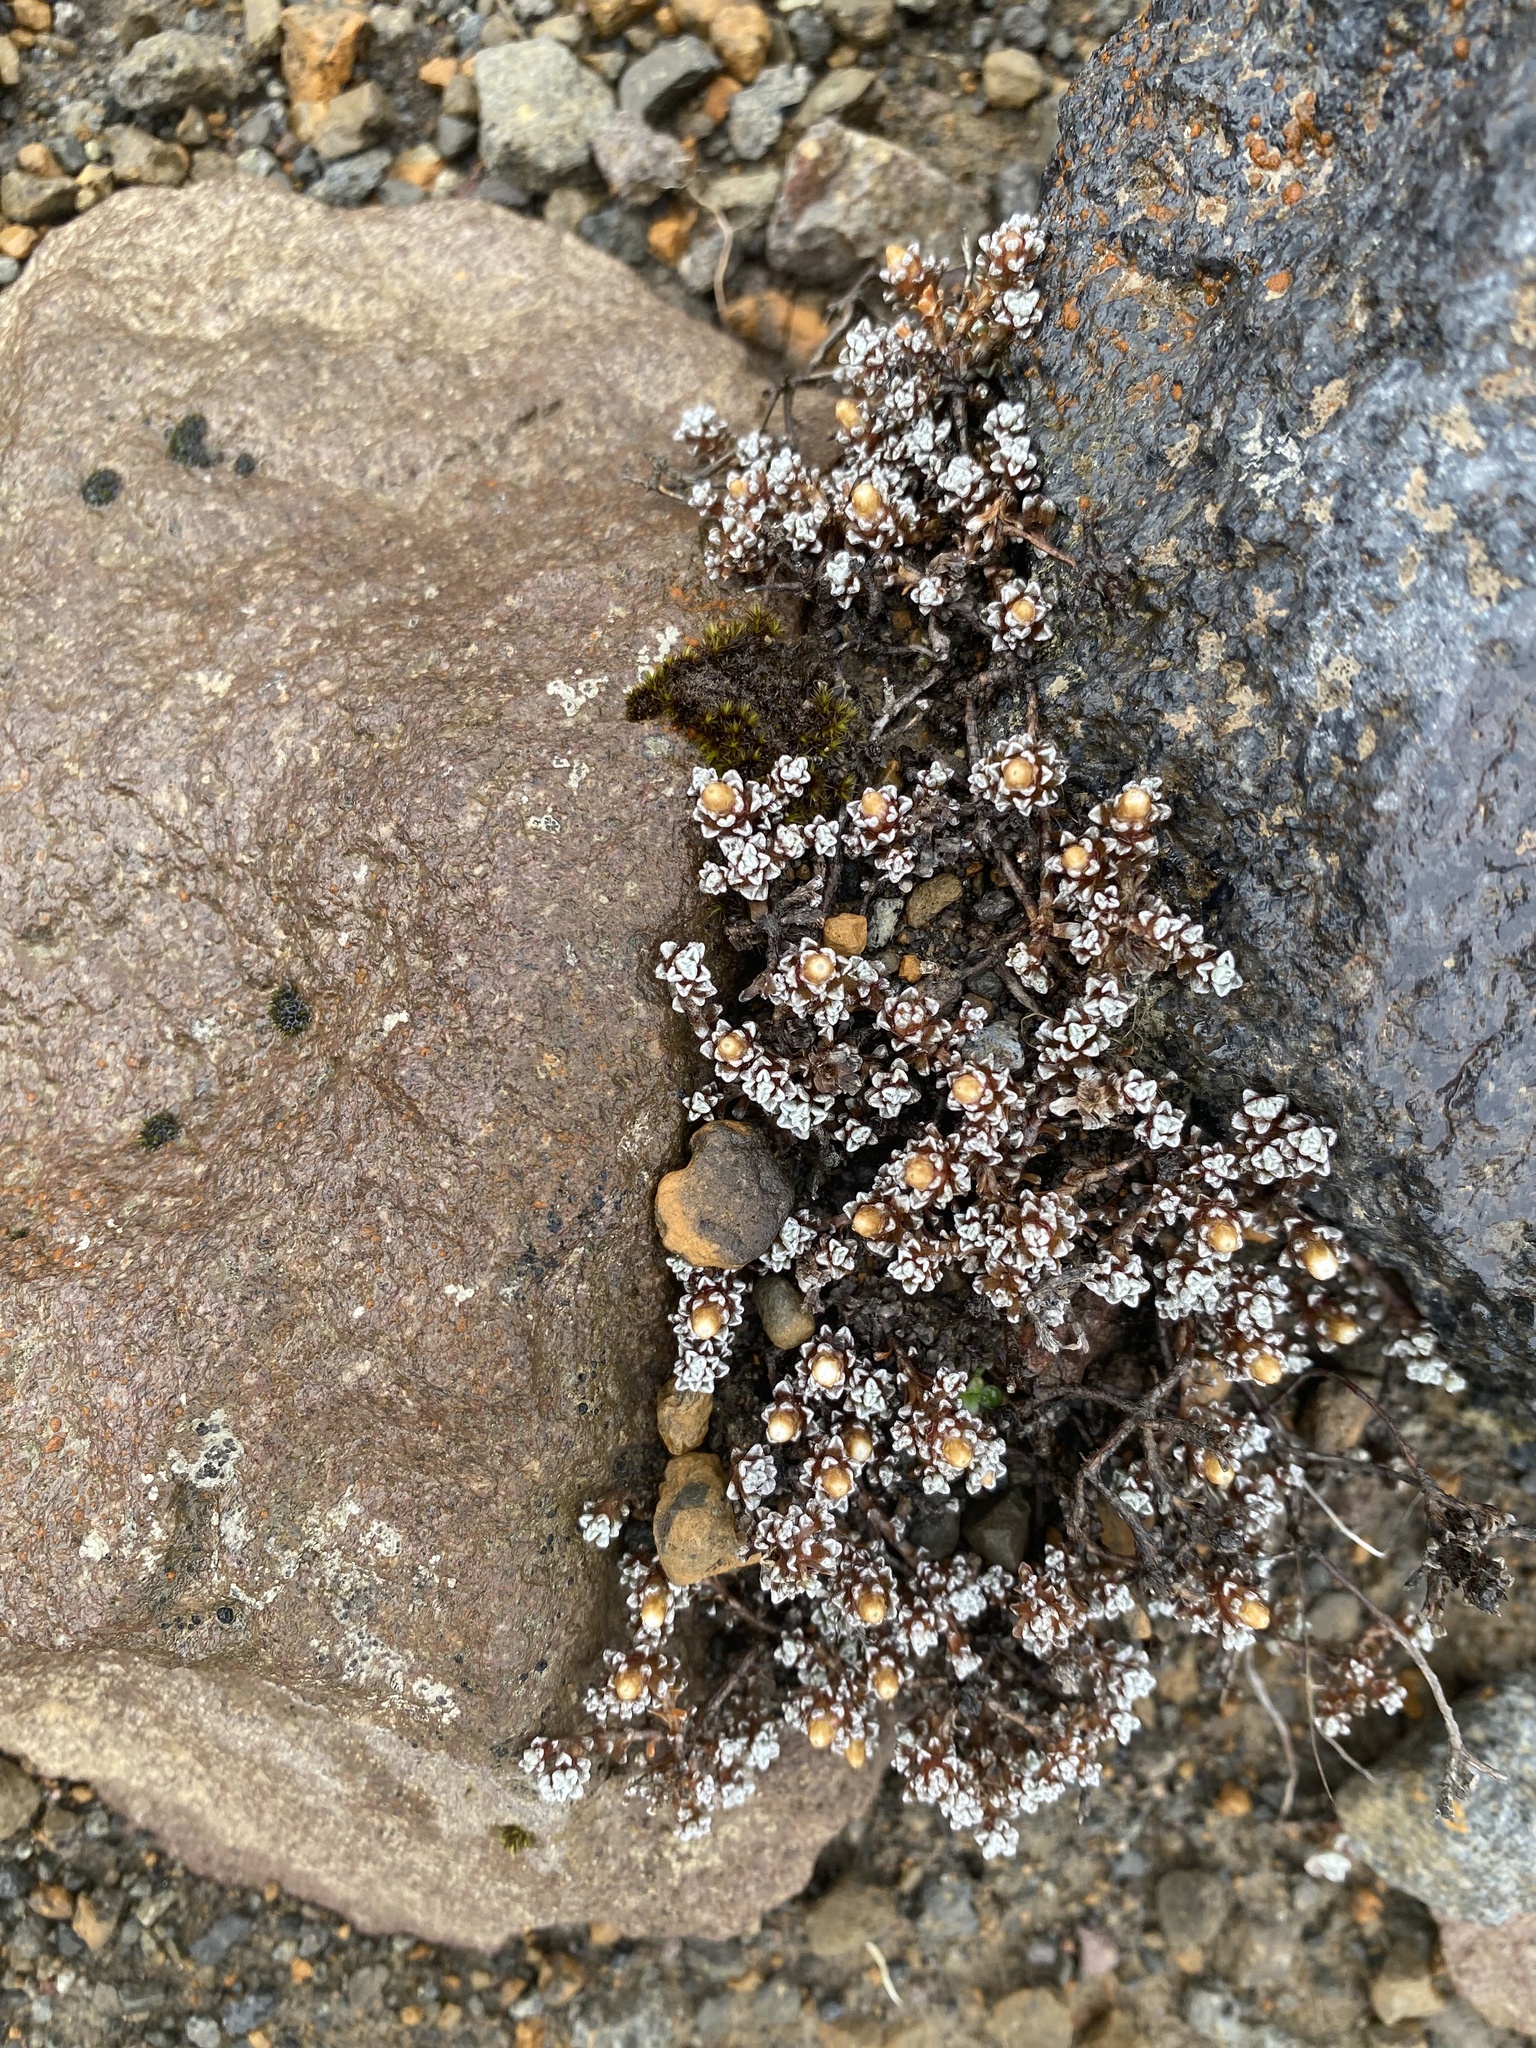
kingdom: Plantae
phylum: Tracheophyta
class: Magnoliopsida
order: Asterales
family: Asteraceae
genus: Raoulia
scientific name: Raoulia albosericea
